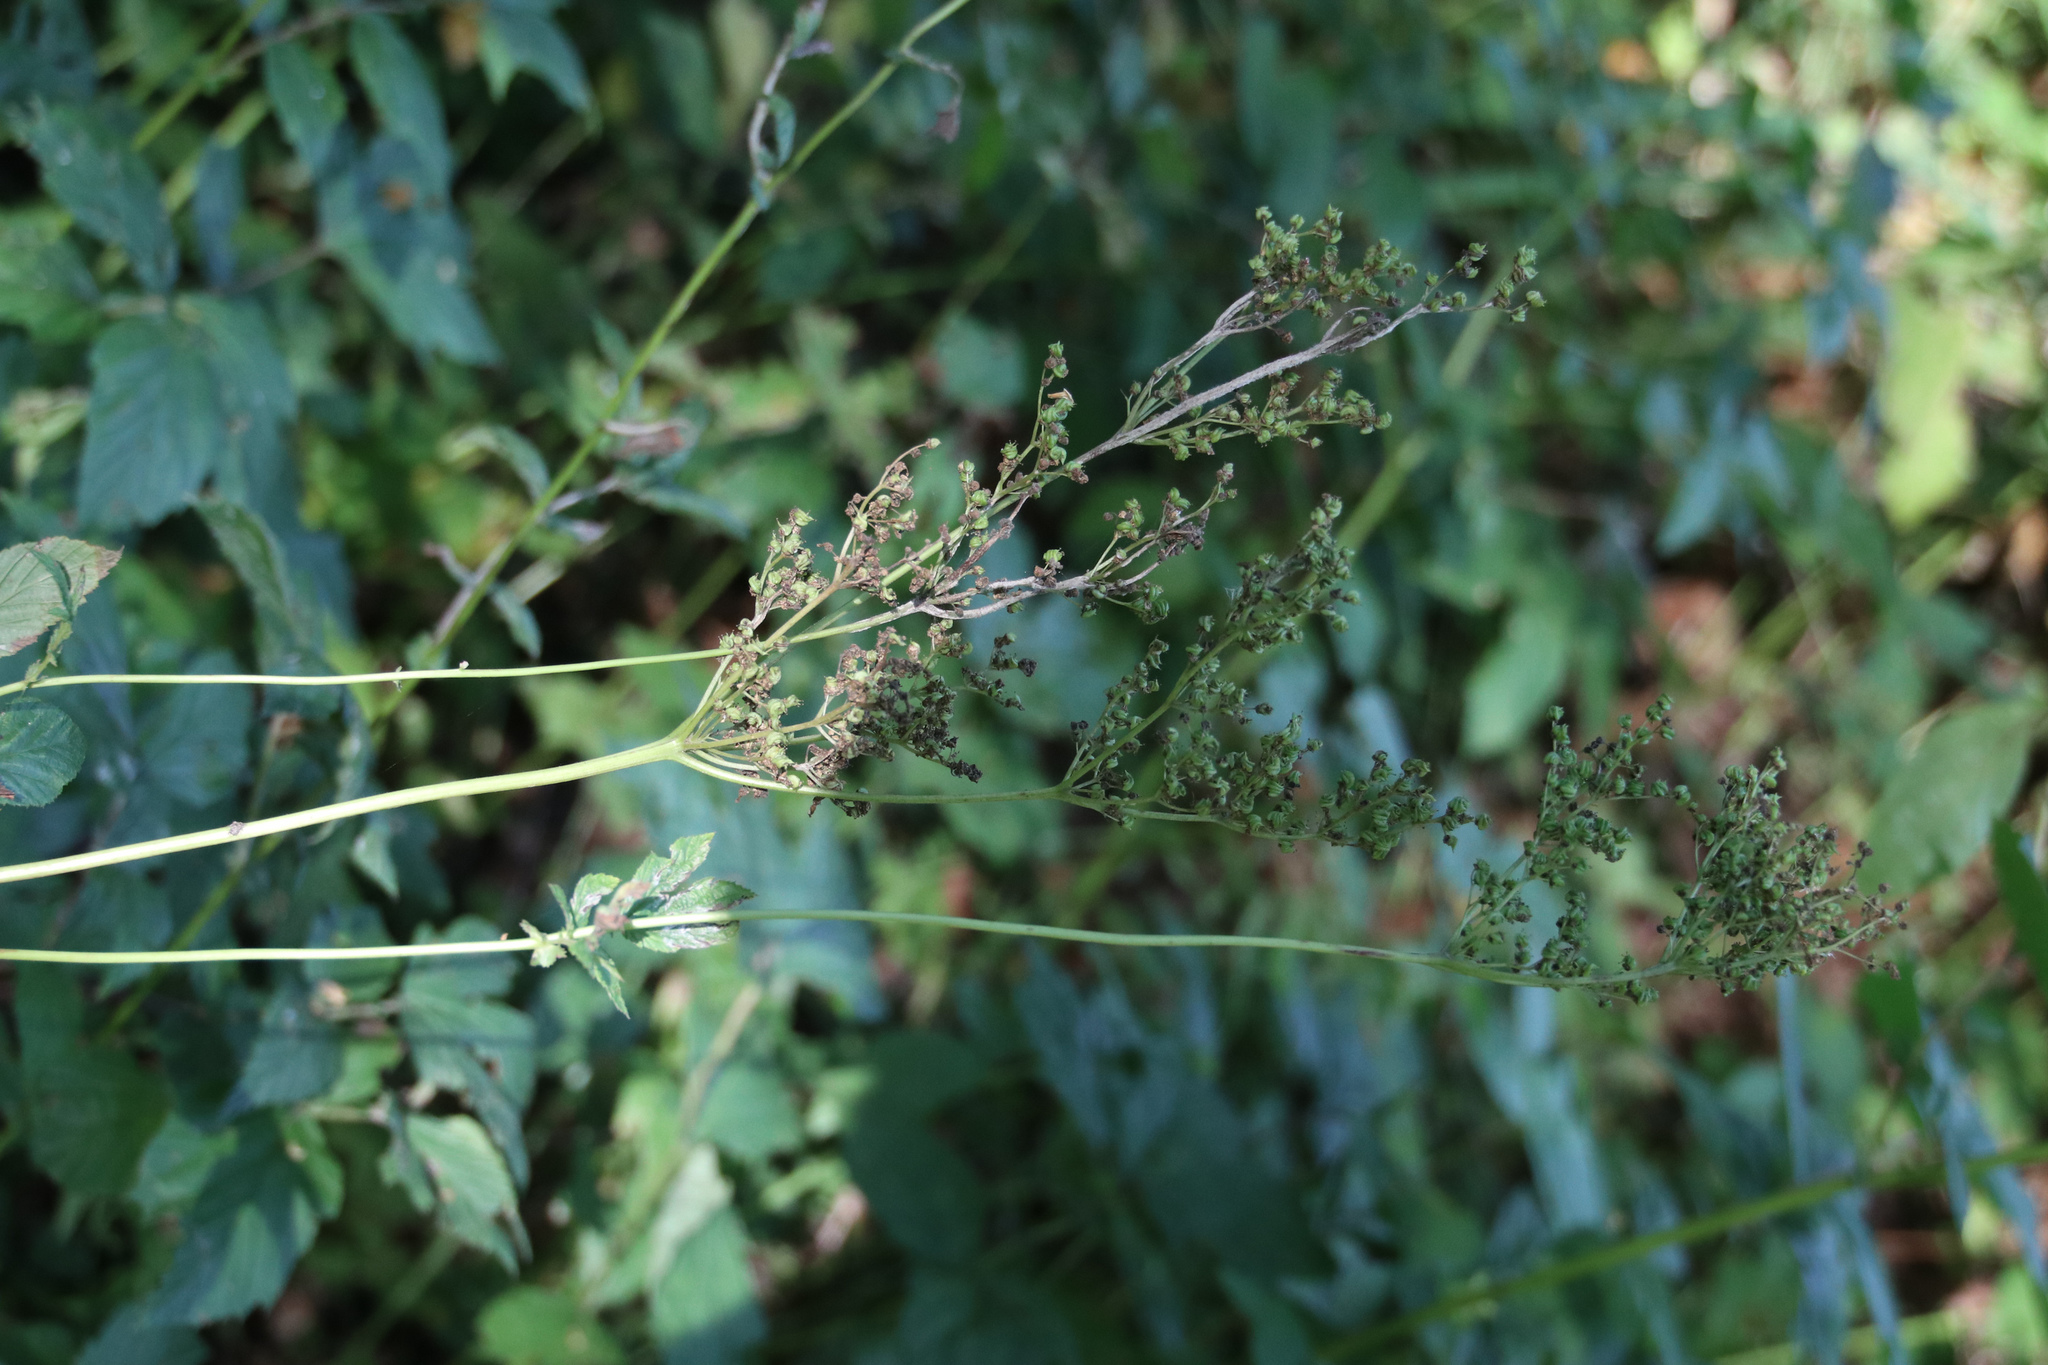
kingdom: Plantae
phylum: Tracheophyta
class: Magnoliopsida
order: Rosales
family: Rosaceae
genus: Filipendula
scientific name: Filipendula ulmaria
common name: Meadowsweet
